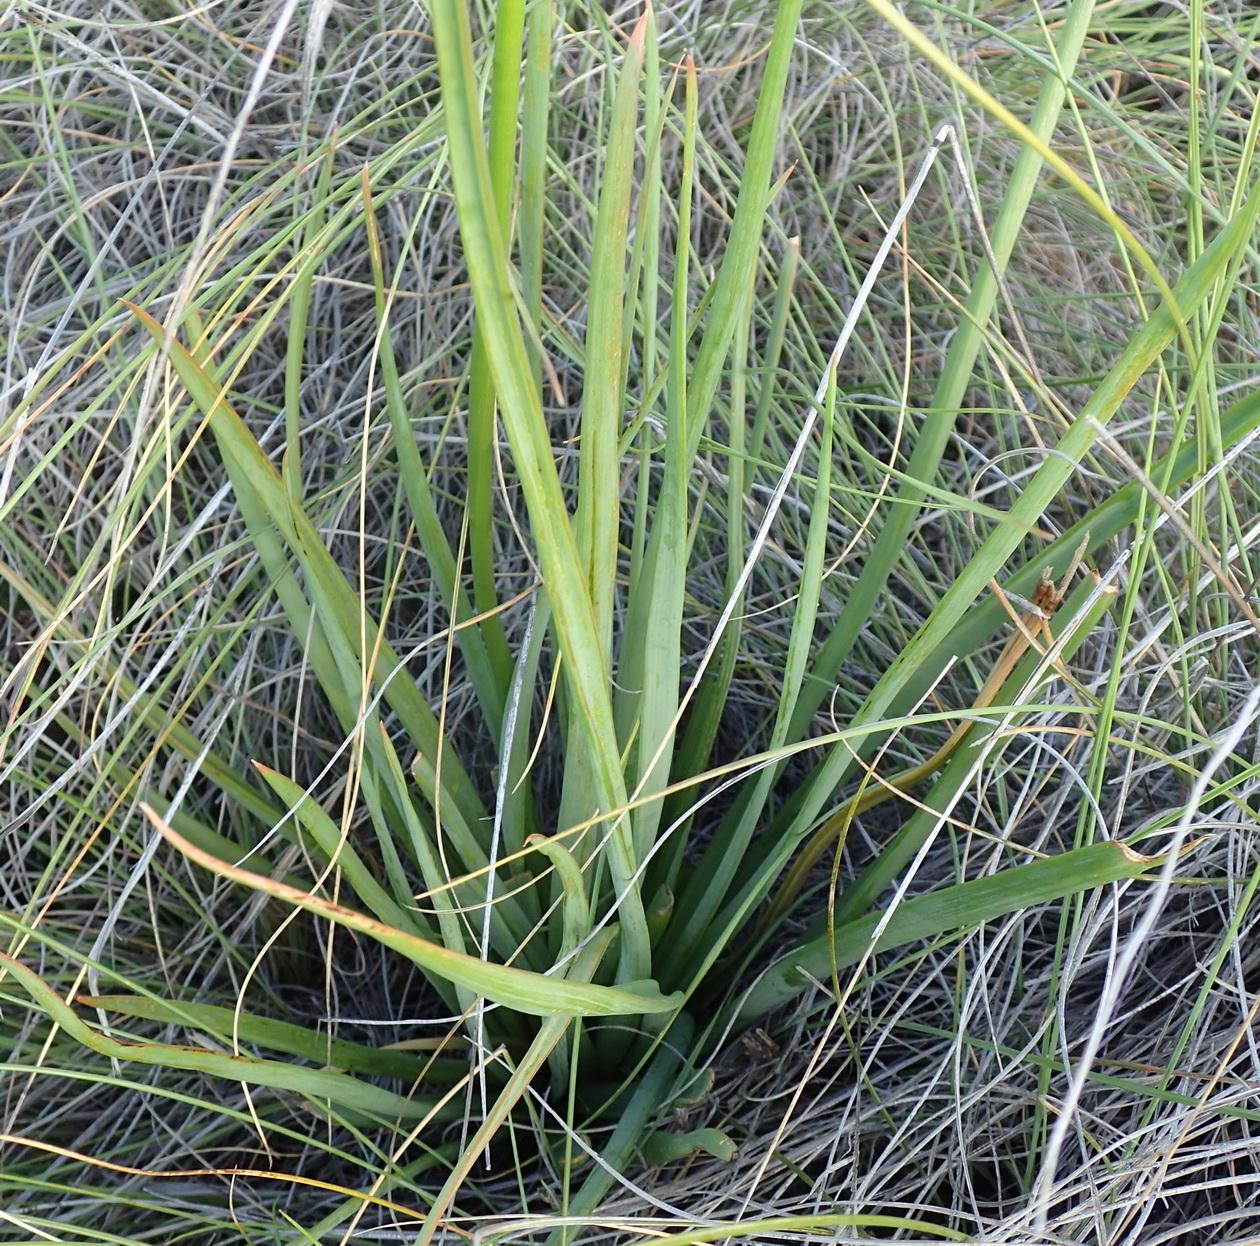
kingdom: Plantae
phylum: Tracheophyta
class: Liliopsida
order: Asparagales
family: Asphodelaceae
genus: Bulbine
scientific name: Bulbine abyssinica
